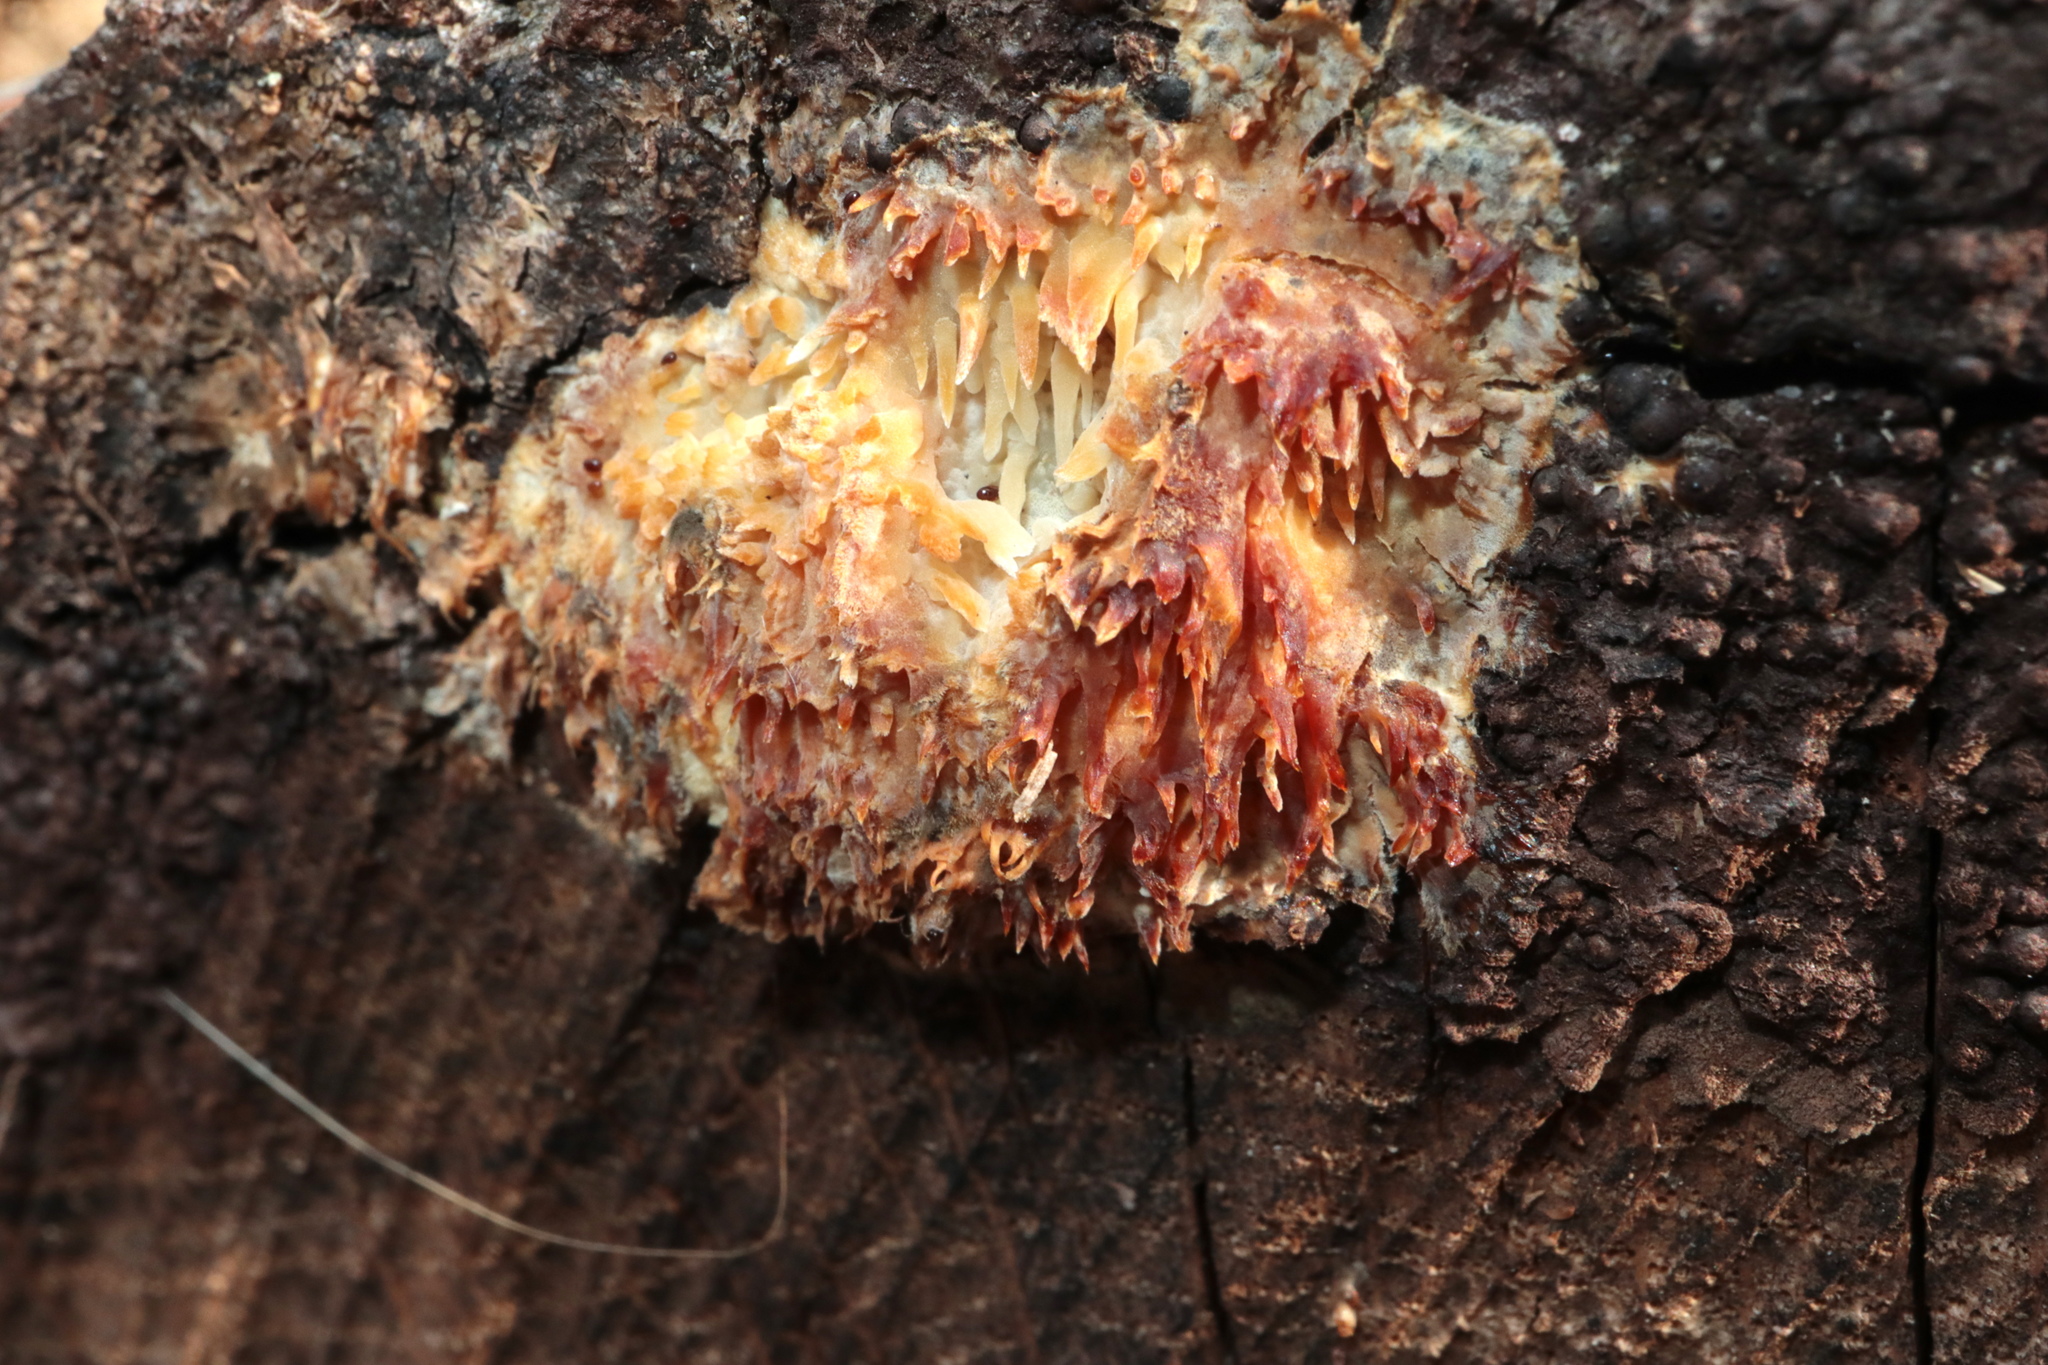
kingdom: Fungi
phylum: Basidiomycota
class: Agaricomycetes
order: Agaricales
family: Radulomycetaceae
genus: Radulomyces
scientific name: Radulomyces copelandii
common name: Asian beauty
